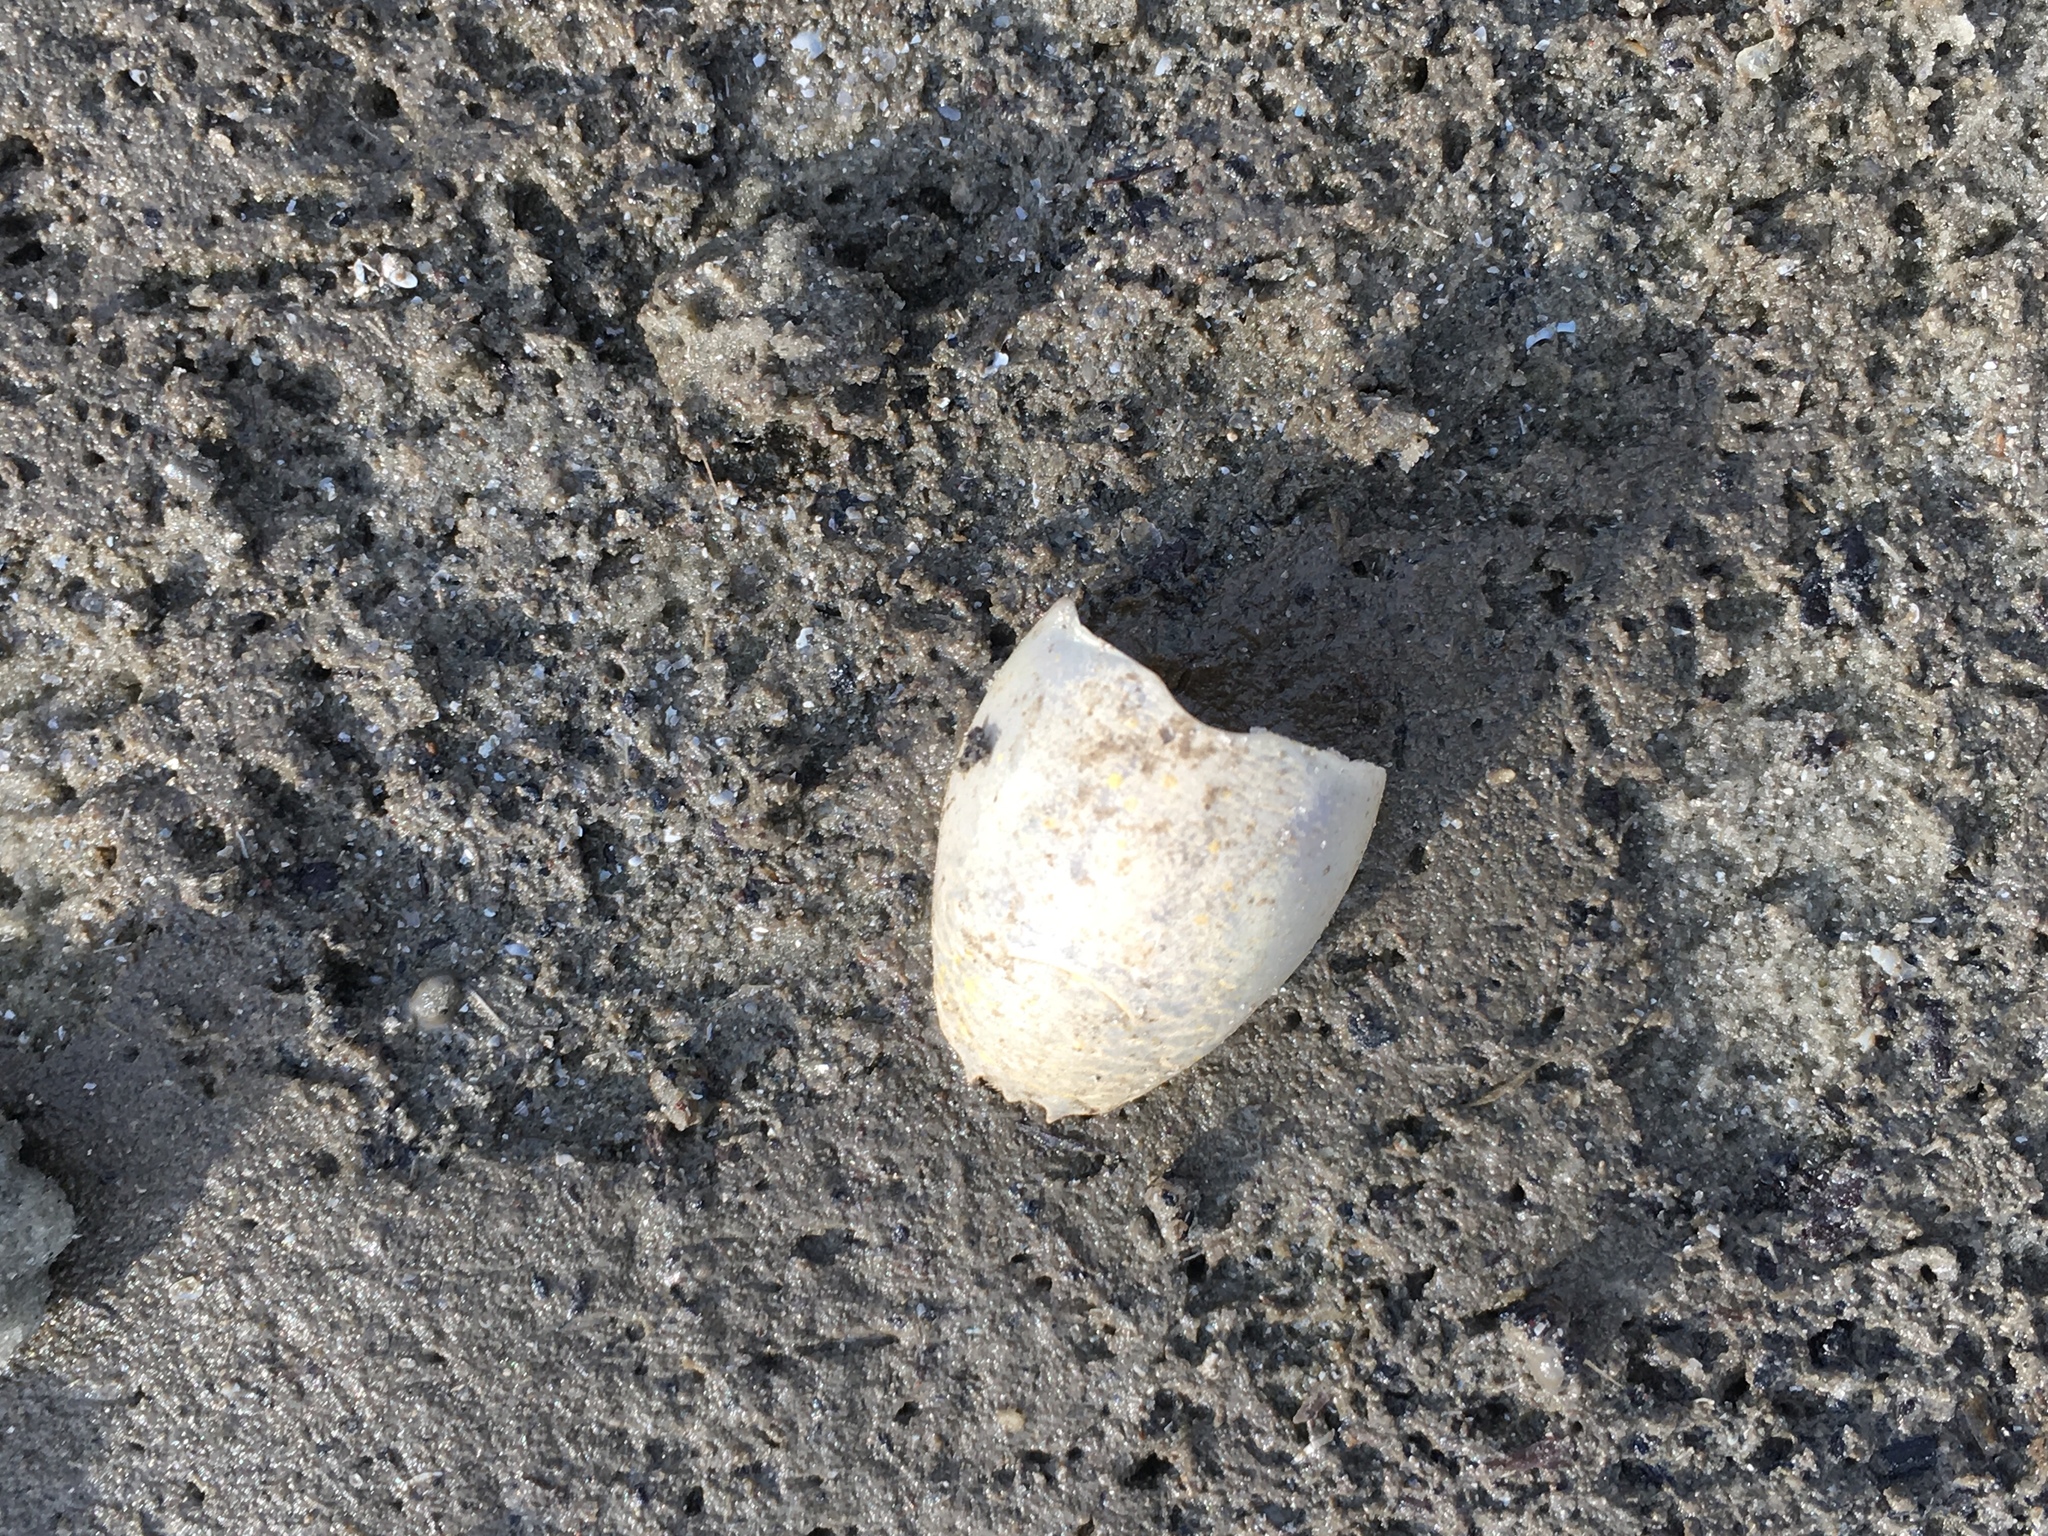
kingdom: Animalia
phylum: Arthropoda
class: Malacostraca
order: Decapoda
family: Hippidae
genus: Emerita
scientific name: Emerita talpoida
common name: Atlantic sand crab
